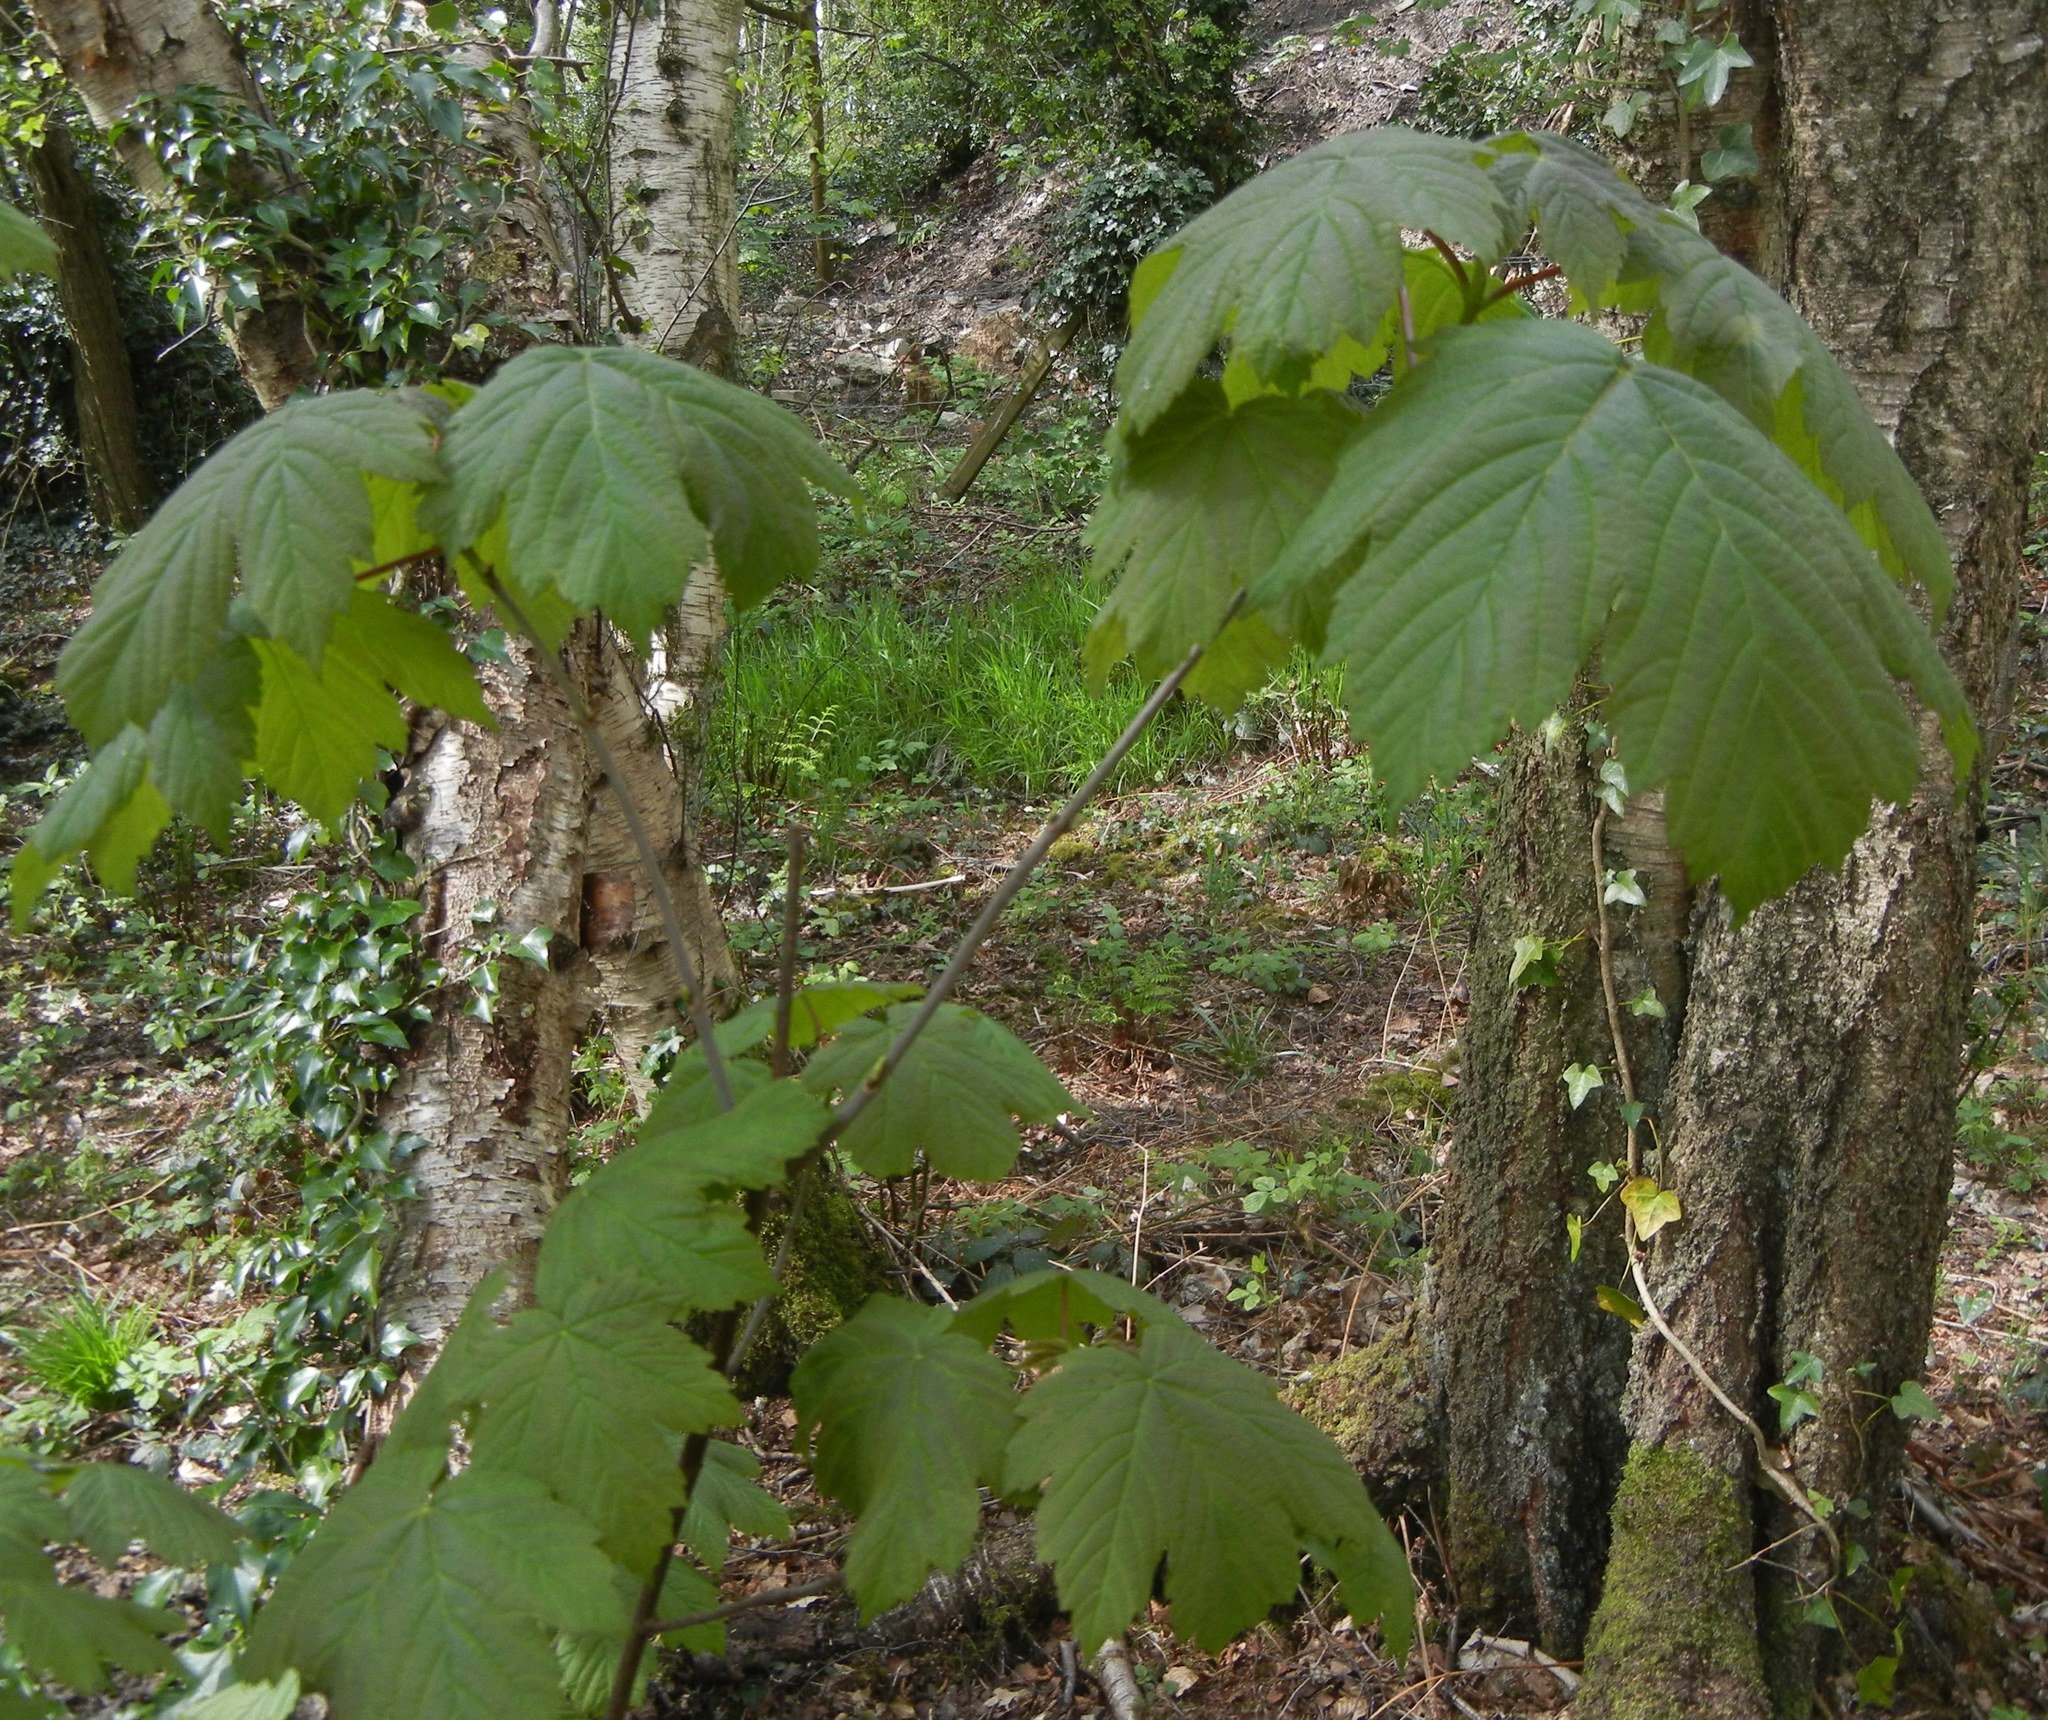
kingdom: Plantae
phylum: Tracheophyta
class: Magnoliopsida
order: Sapindales
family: Sapindaceae
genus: Acer
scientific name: Acer pseudoplatanus
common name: Sycamore
